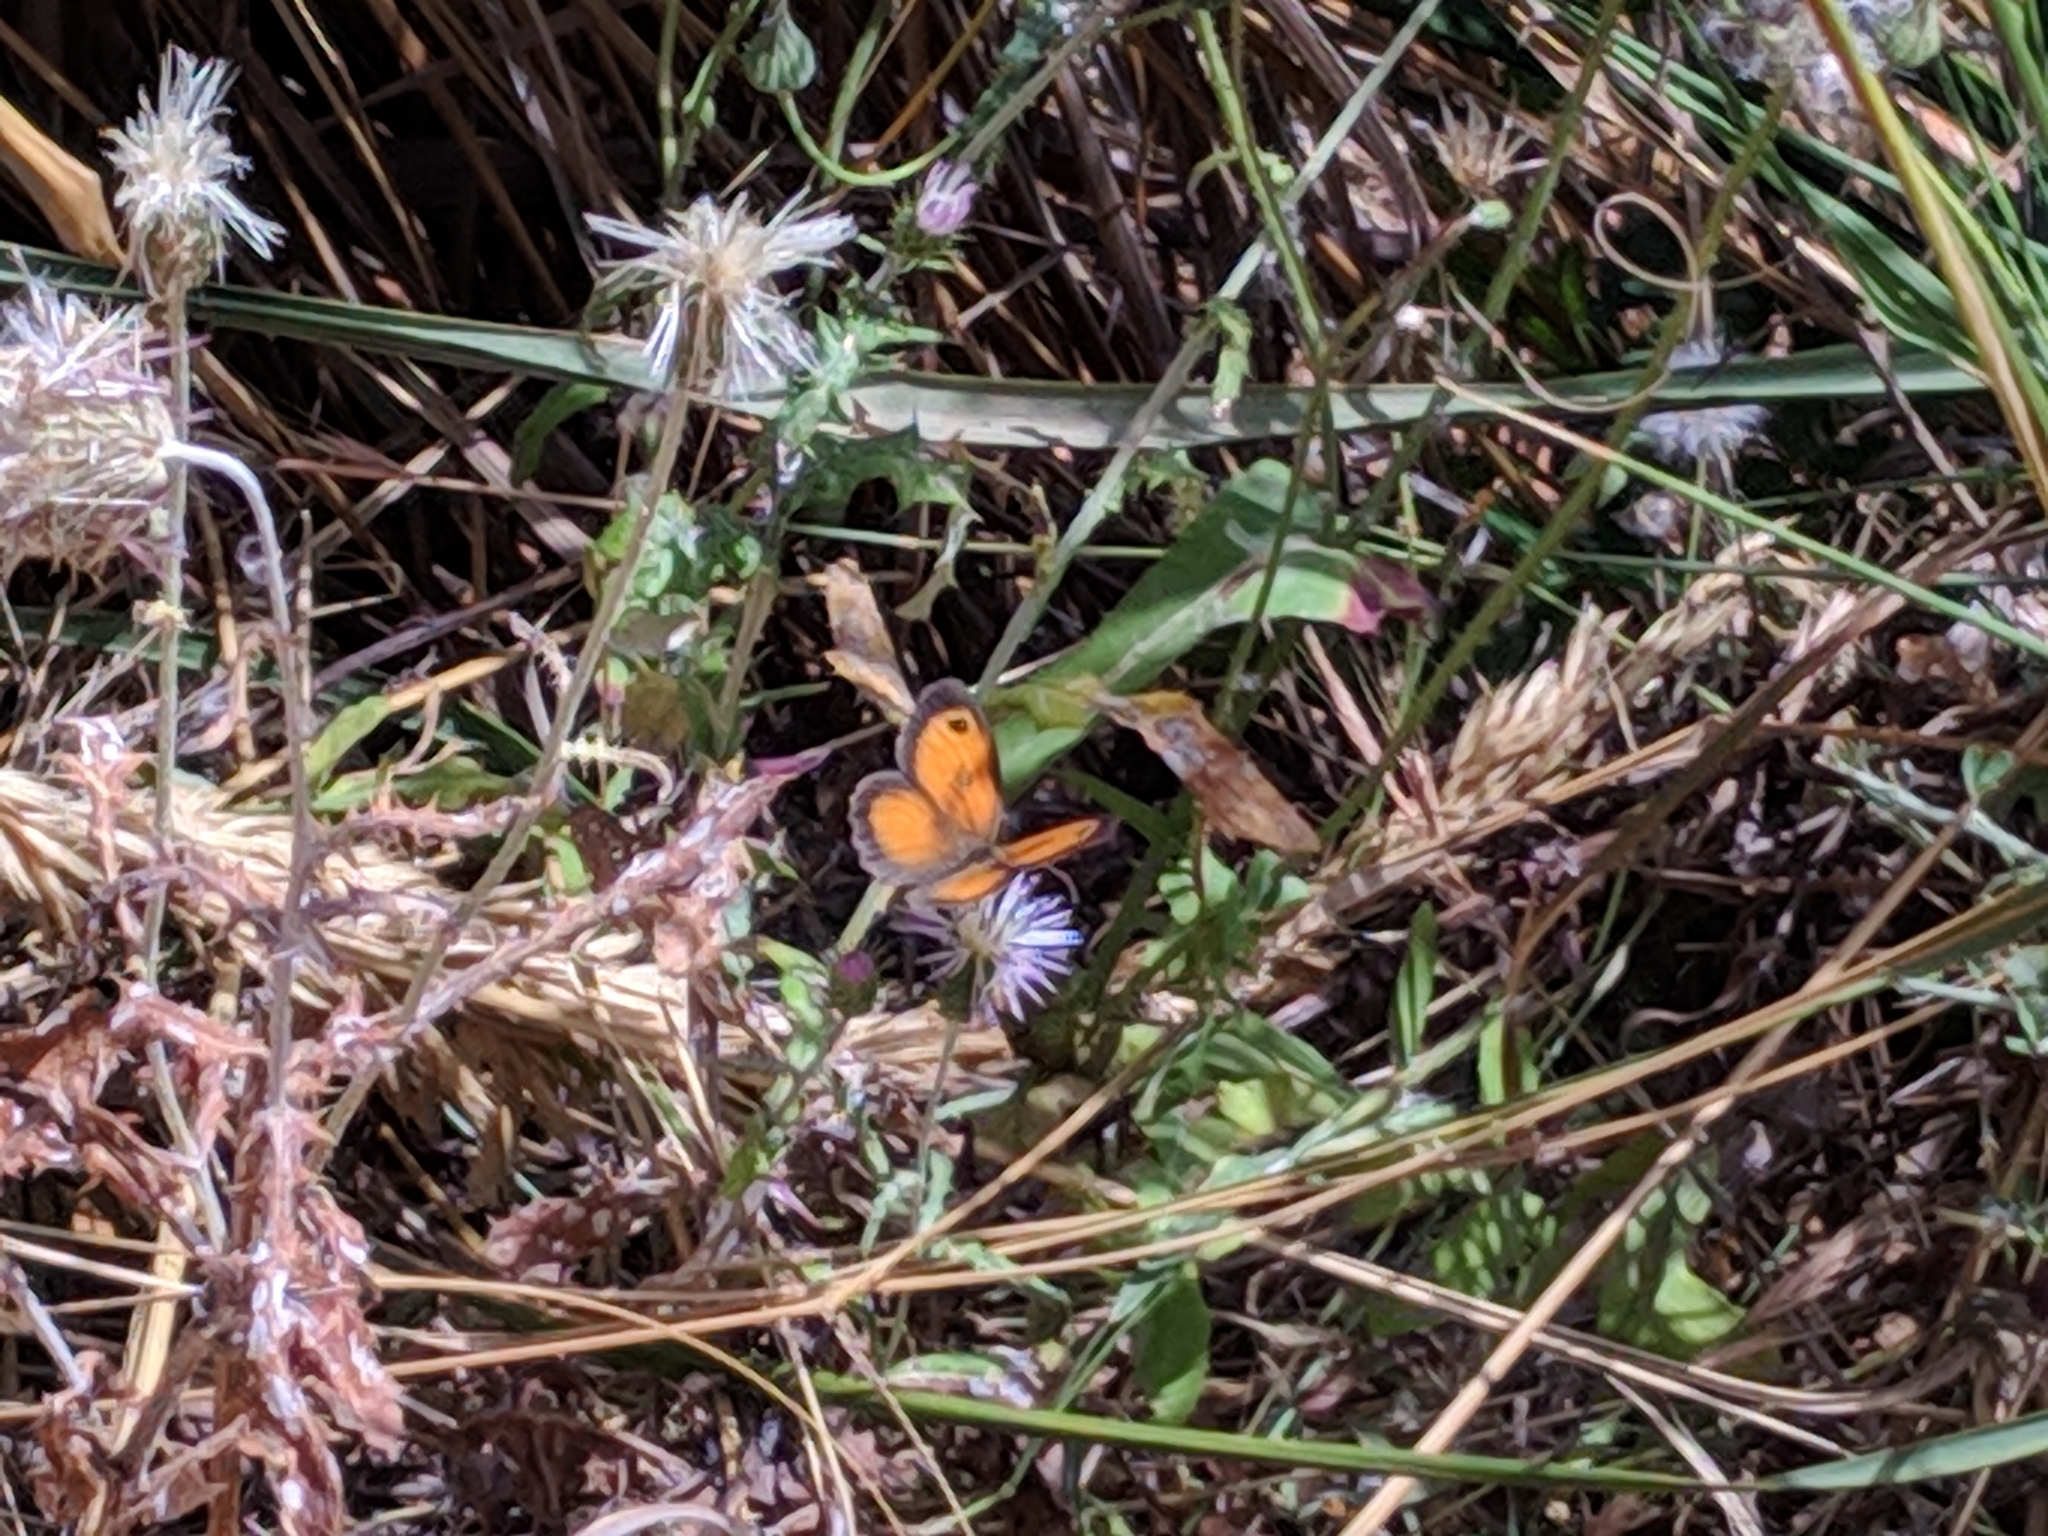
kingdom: Animalia
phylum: Arthropoda
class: Insecta
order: Lepidoptera
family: Nymphalidae
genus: Pyronia
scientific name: Pyronia cecilia
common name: Southern gatekeeper
